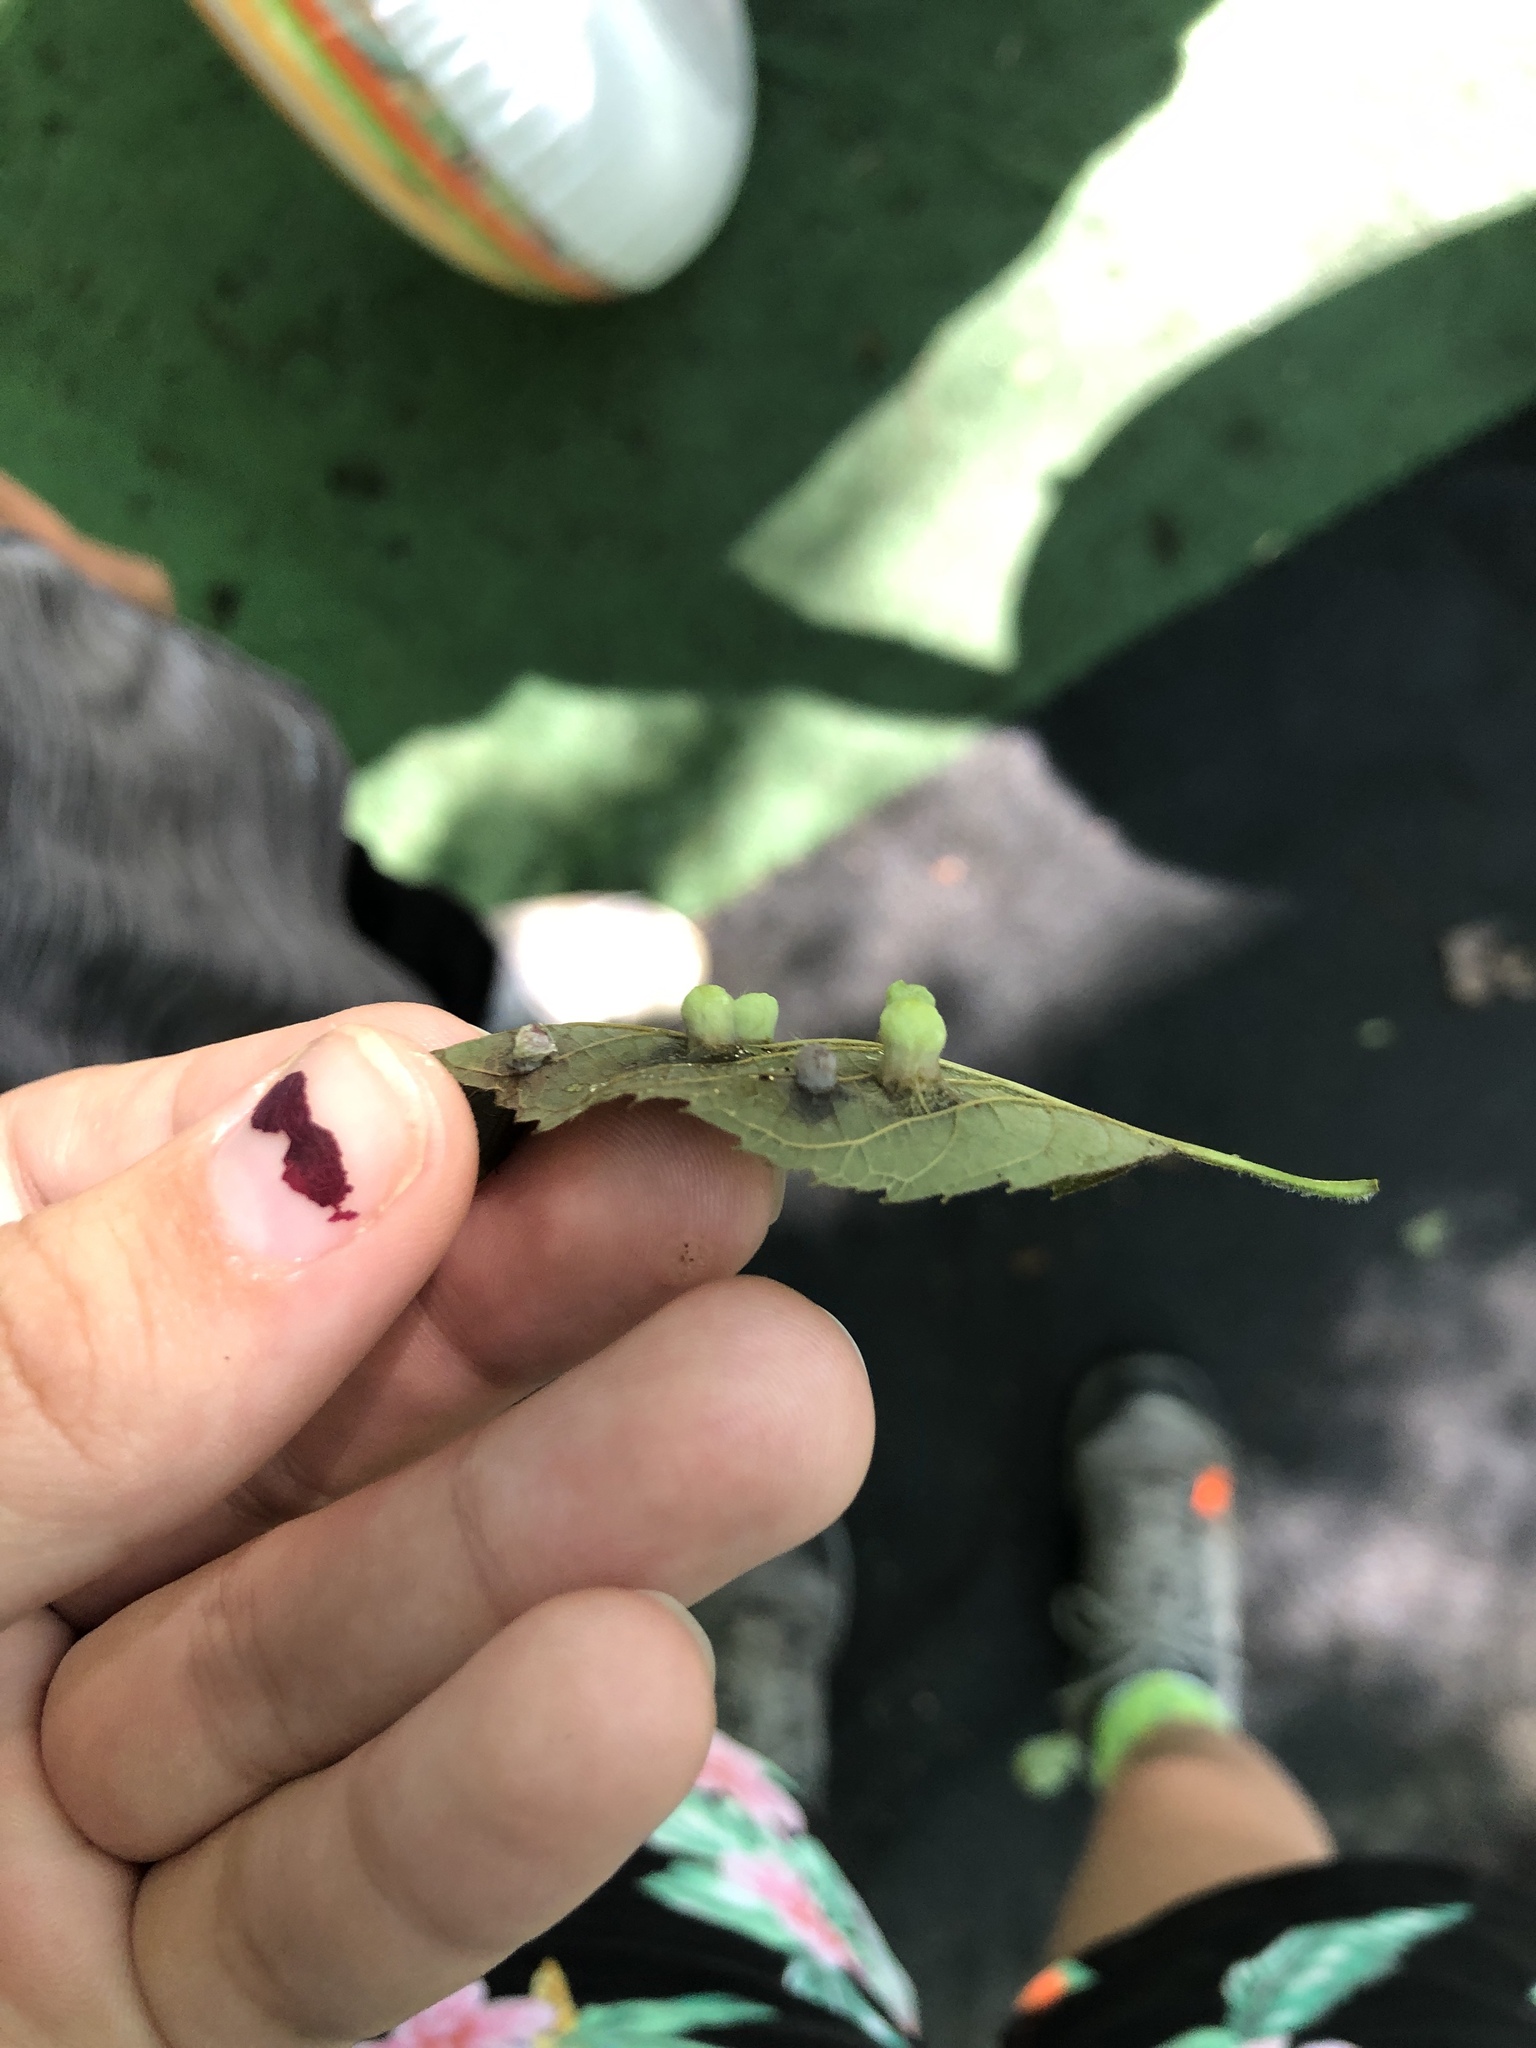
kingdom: Animalia
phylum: Arthropoda
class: Insecta
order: Hemiptera
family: Aphalaridae
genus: Pachypsylla
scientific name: Pachypsylla celtidismamma
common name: Hackberry nipplegall psyllid
